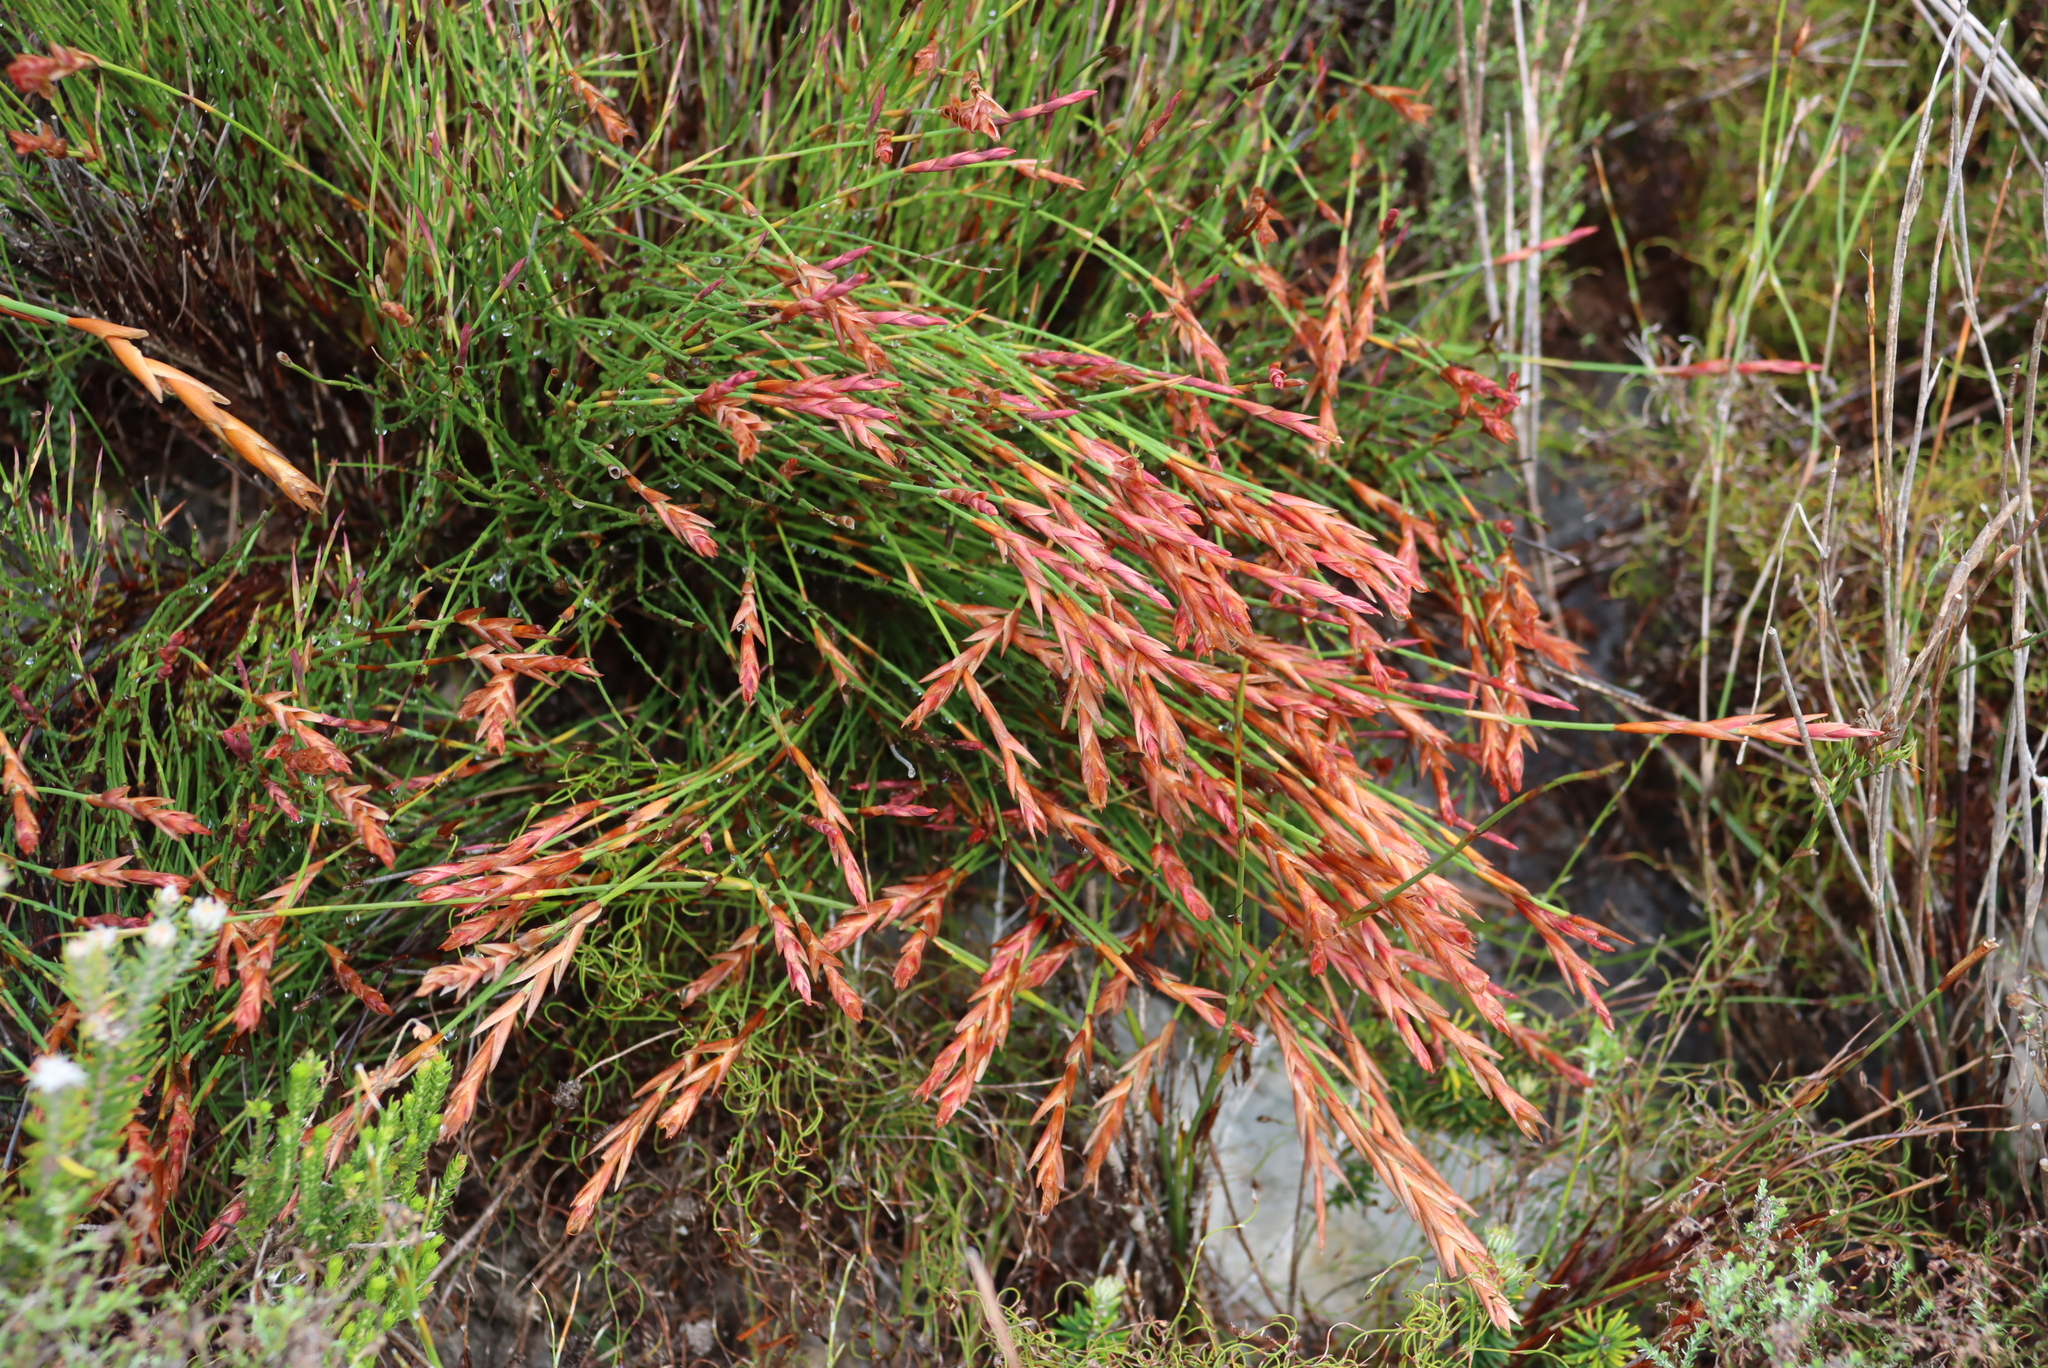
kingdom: Plantae
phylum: Tracheophyta
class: Liliopsida
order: Poales
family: Restionaceae
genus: Elegia
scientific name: Elegia stipularis
